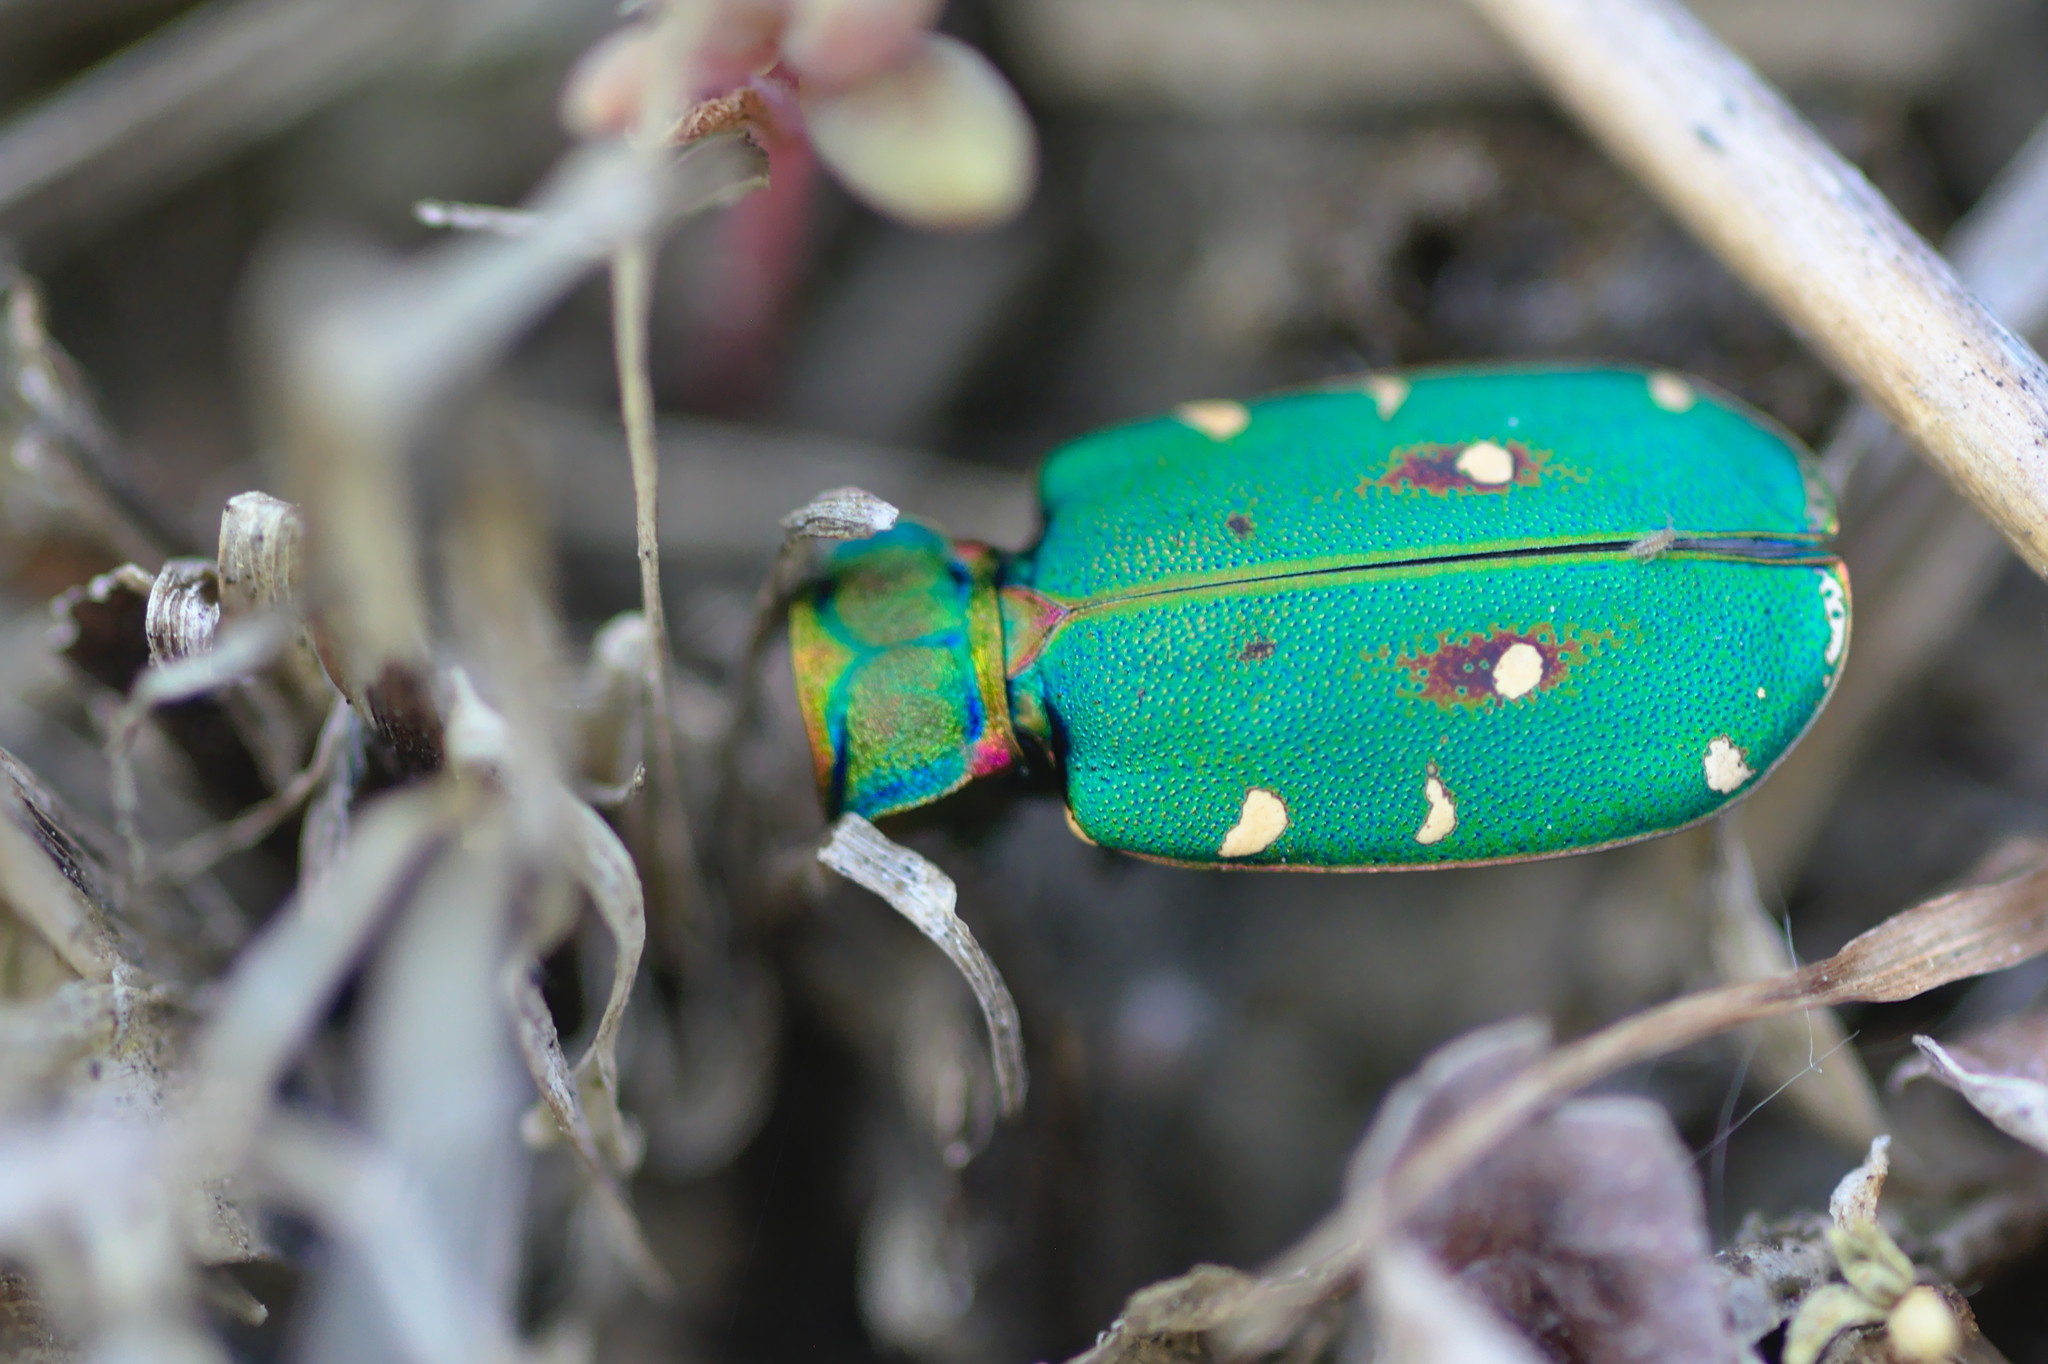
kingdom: Animalia
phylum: Arthropoda
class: Insecta
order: Coleoptera
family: Carabidae
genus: Cicindela
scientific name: Cicindela campestris
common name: Common tiger beetle
